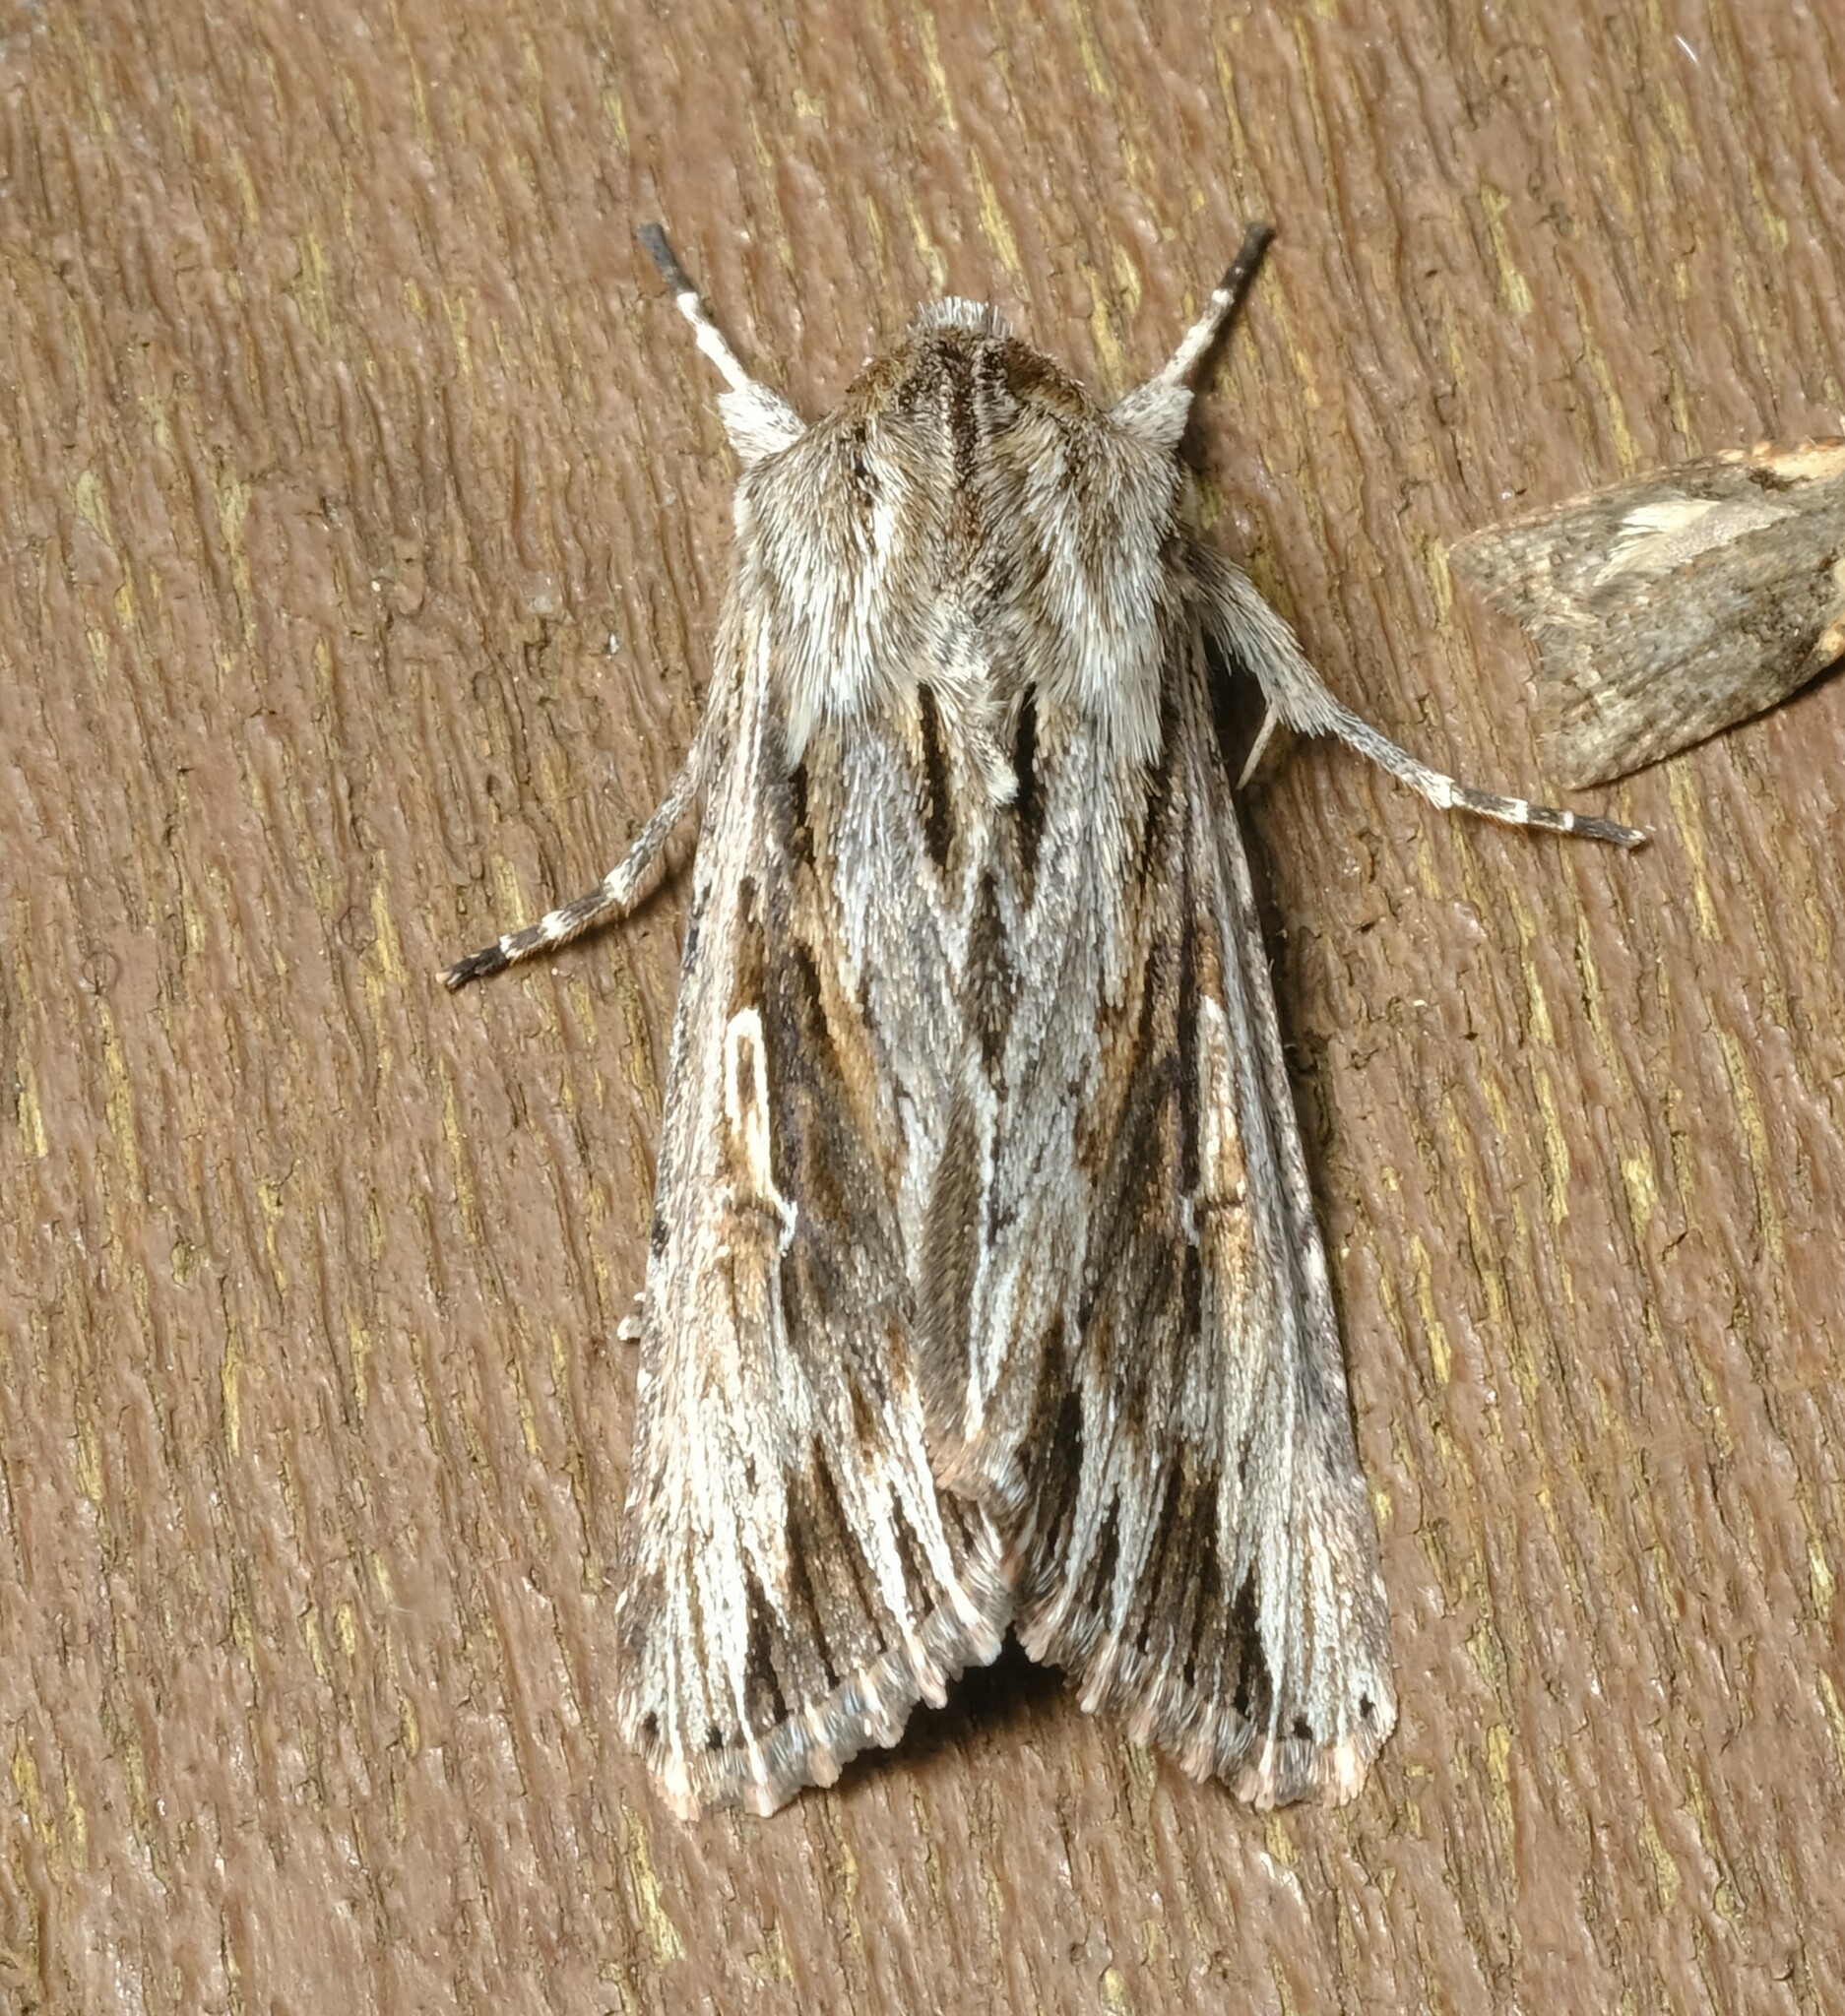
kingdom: Animalia
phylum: Arthropoda
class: Insecta
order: Lepidoptera
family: Noctuidae
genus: Persectania
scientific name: Persectania ewingii
